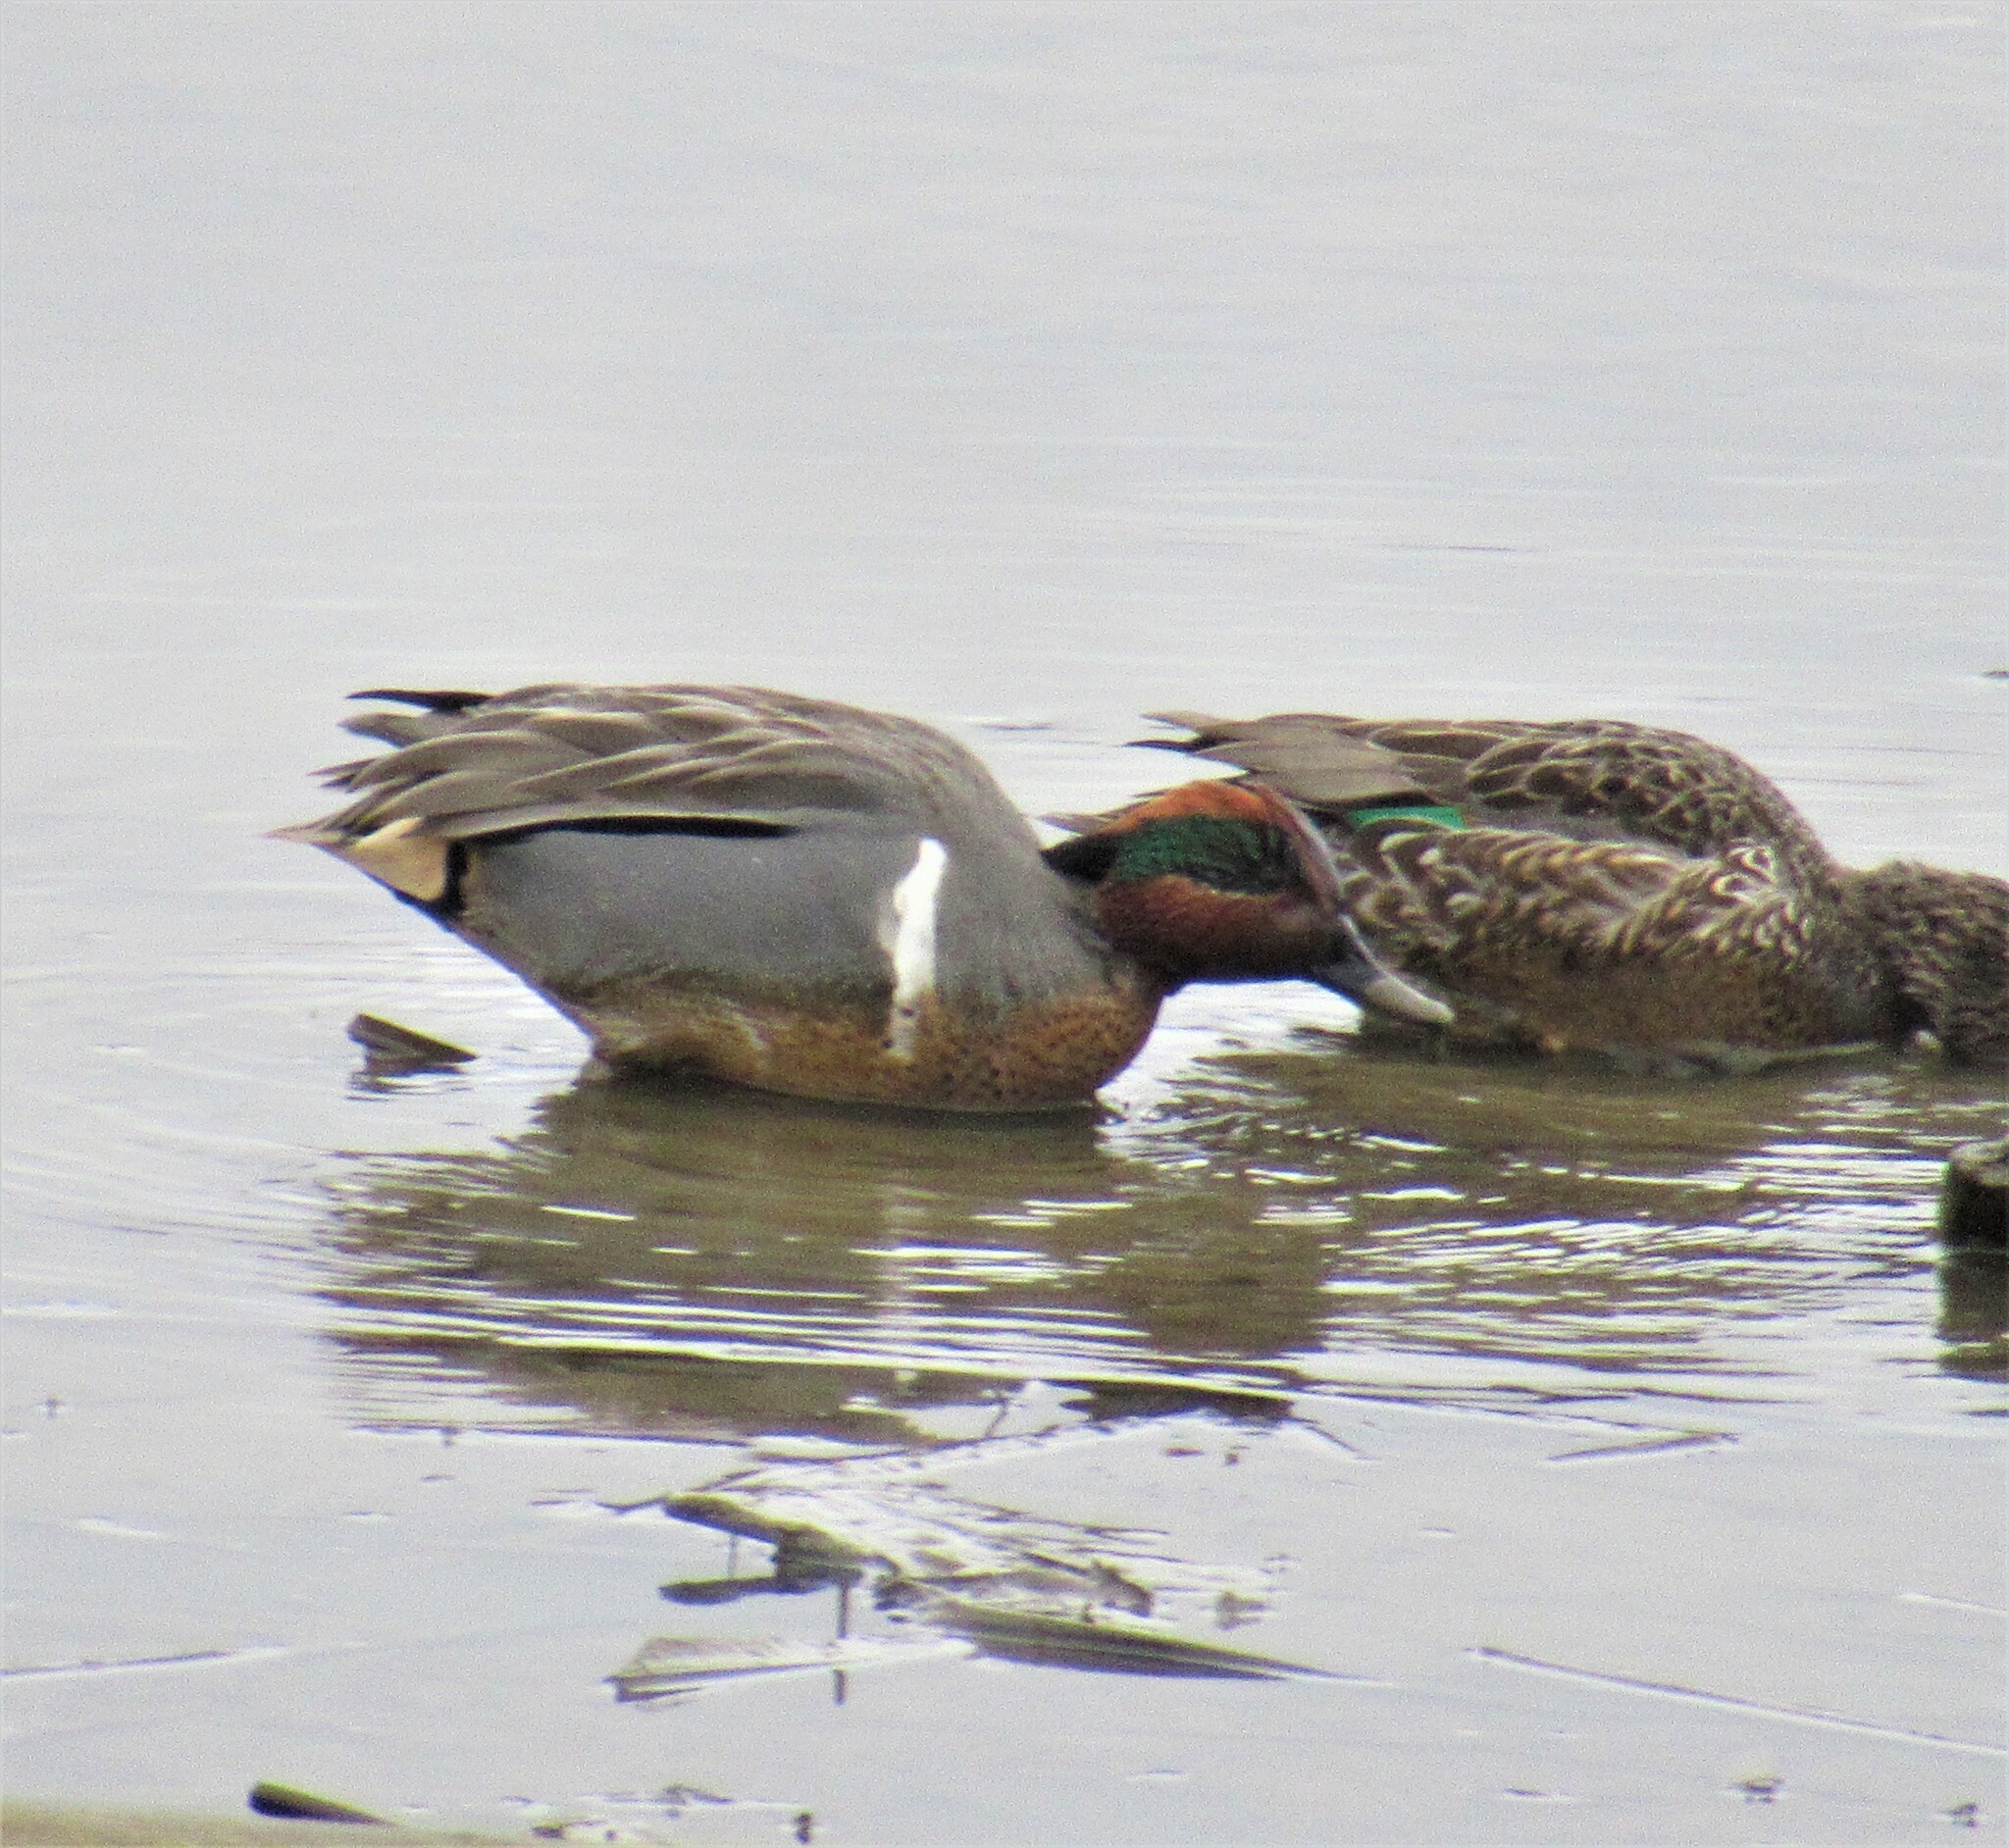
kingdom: Animalia
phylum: Chordata
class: Aves
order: Anseriformes
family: Anatidae
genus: Anas
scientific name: Anas crecca
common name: Eurasian teal
